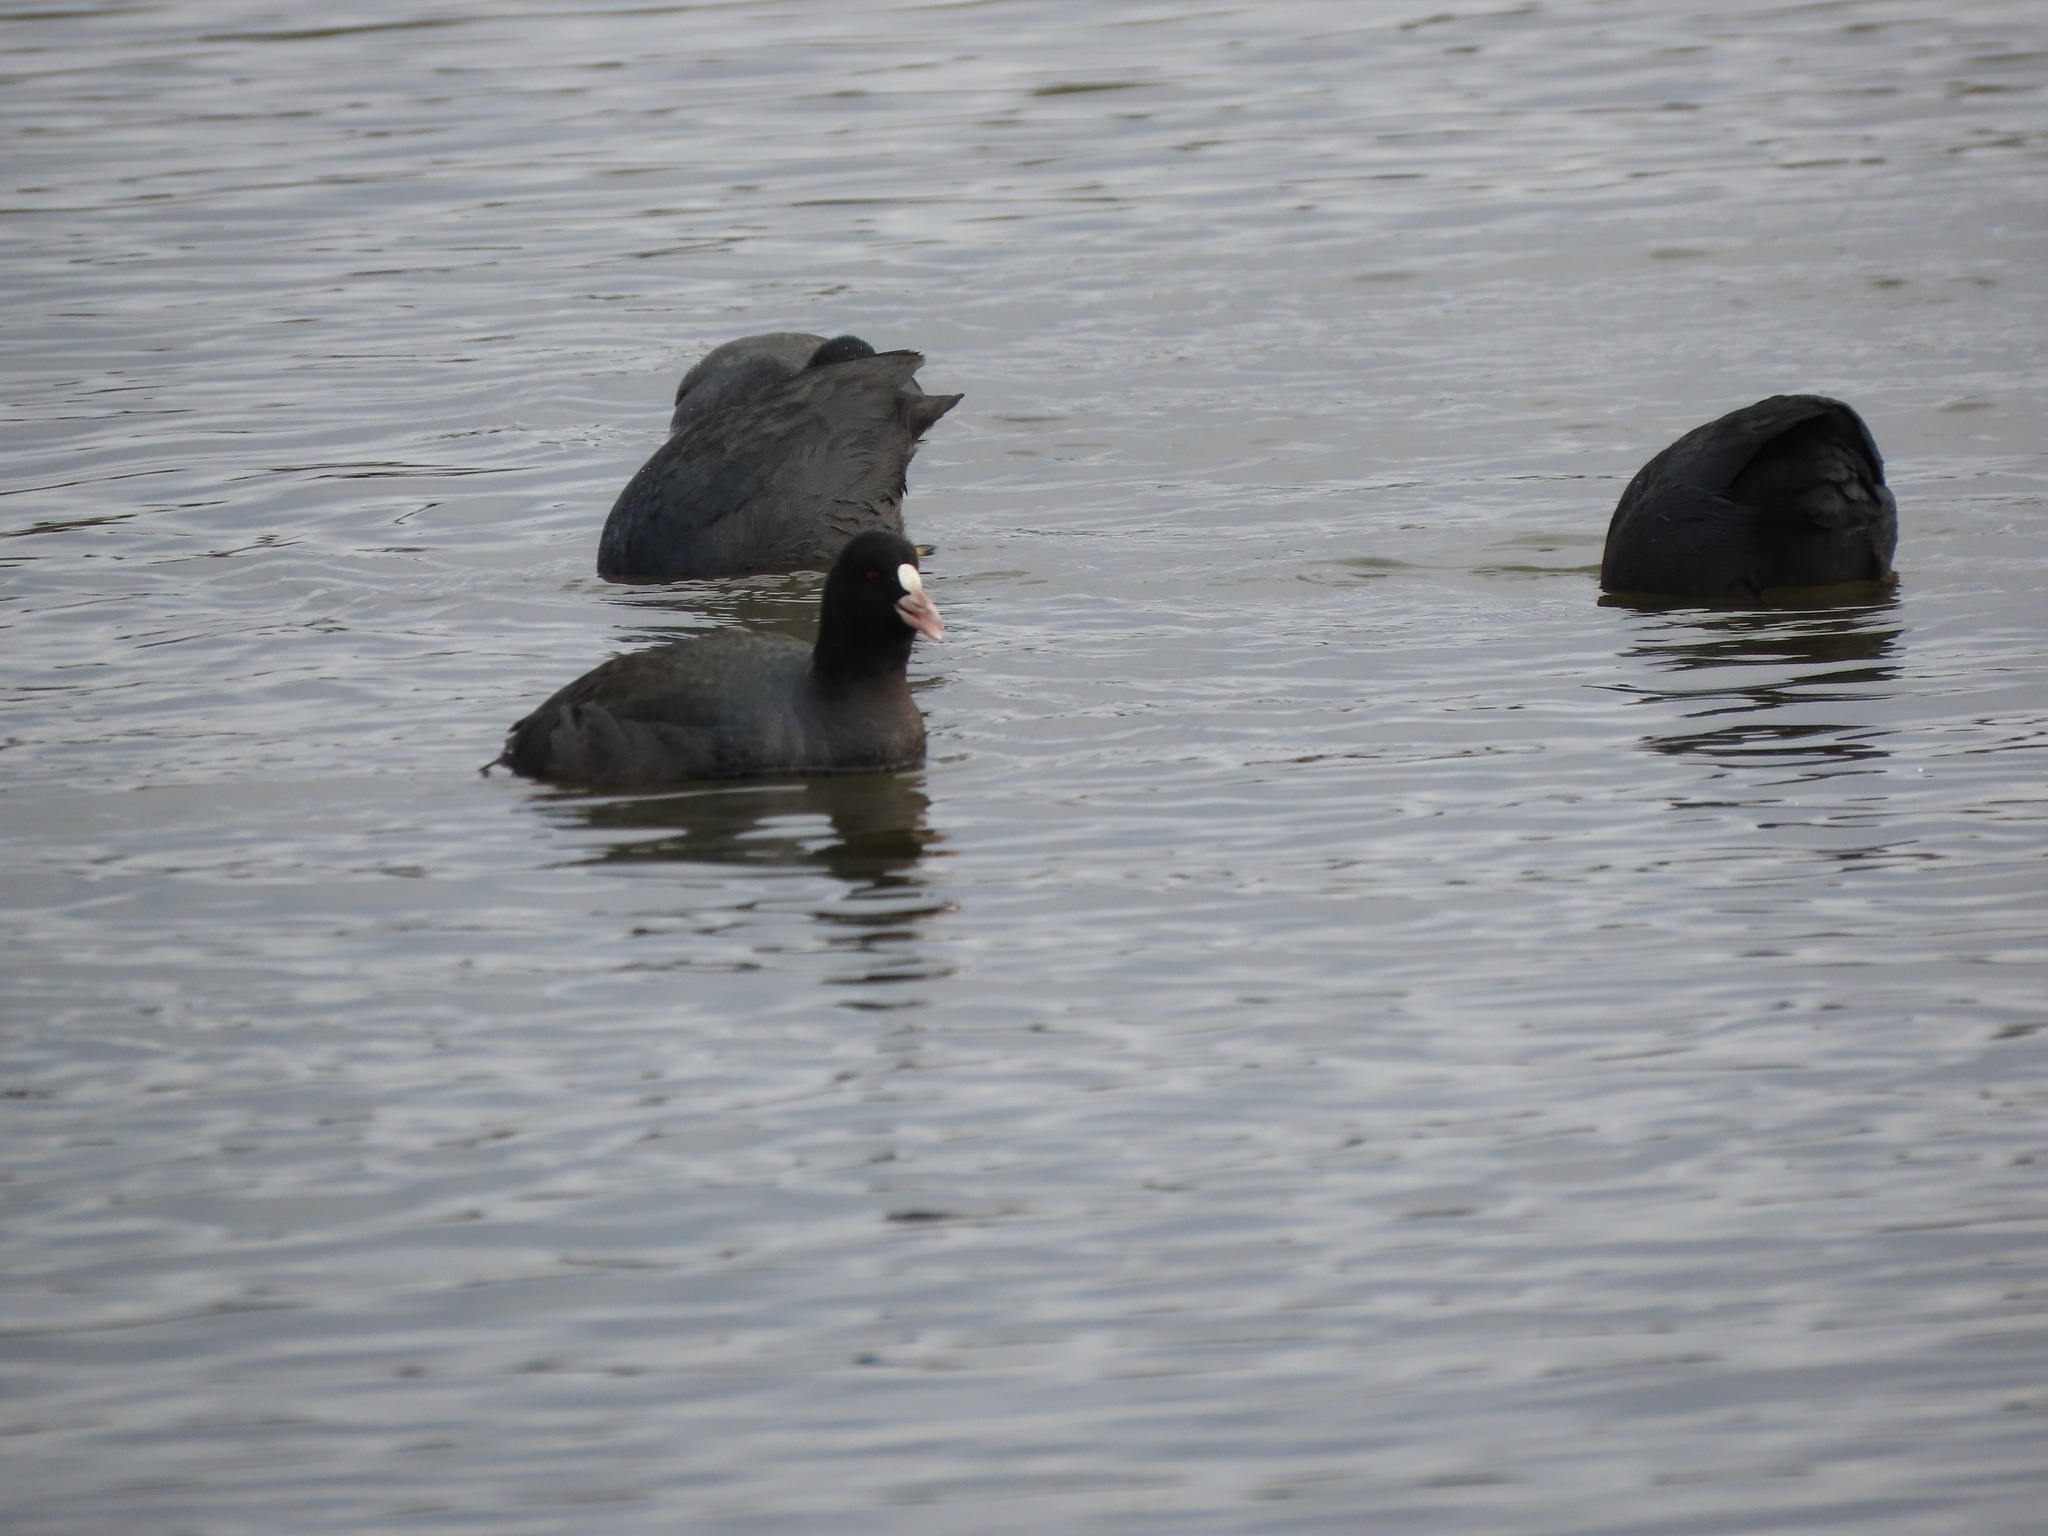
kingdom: Animalia
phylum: Chordata
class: Aves
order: Gruiformes
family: Rallidae
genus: Fulica
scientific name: Fulica atra
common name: Eurasian coot
